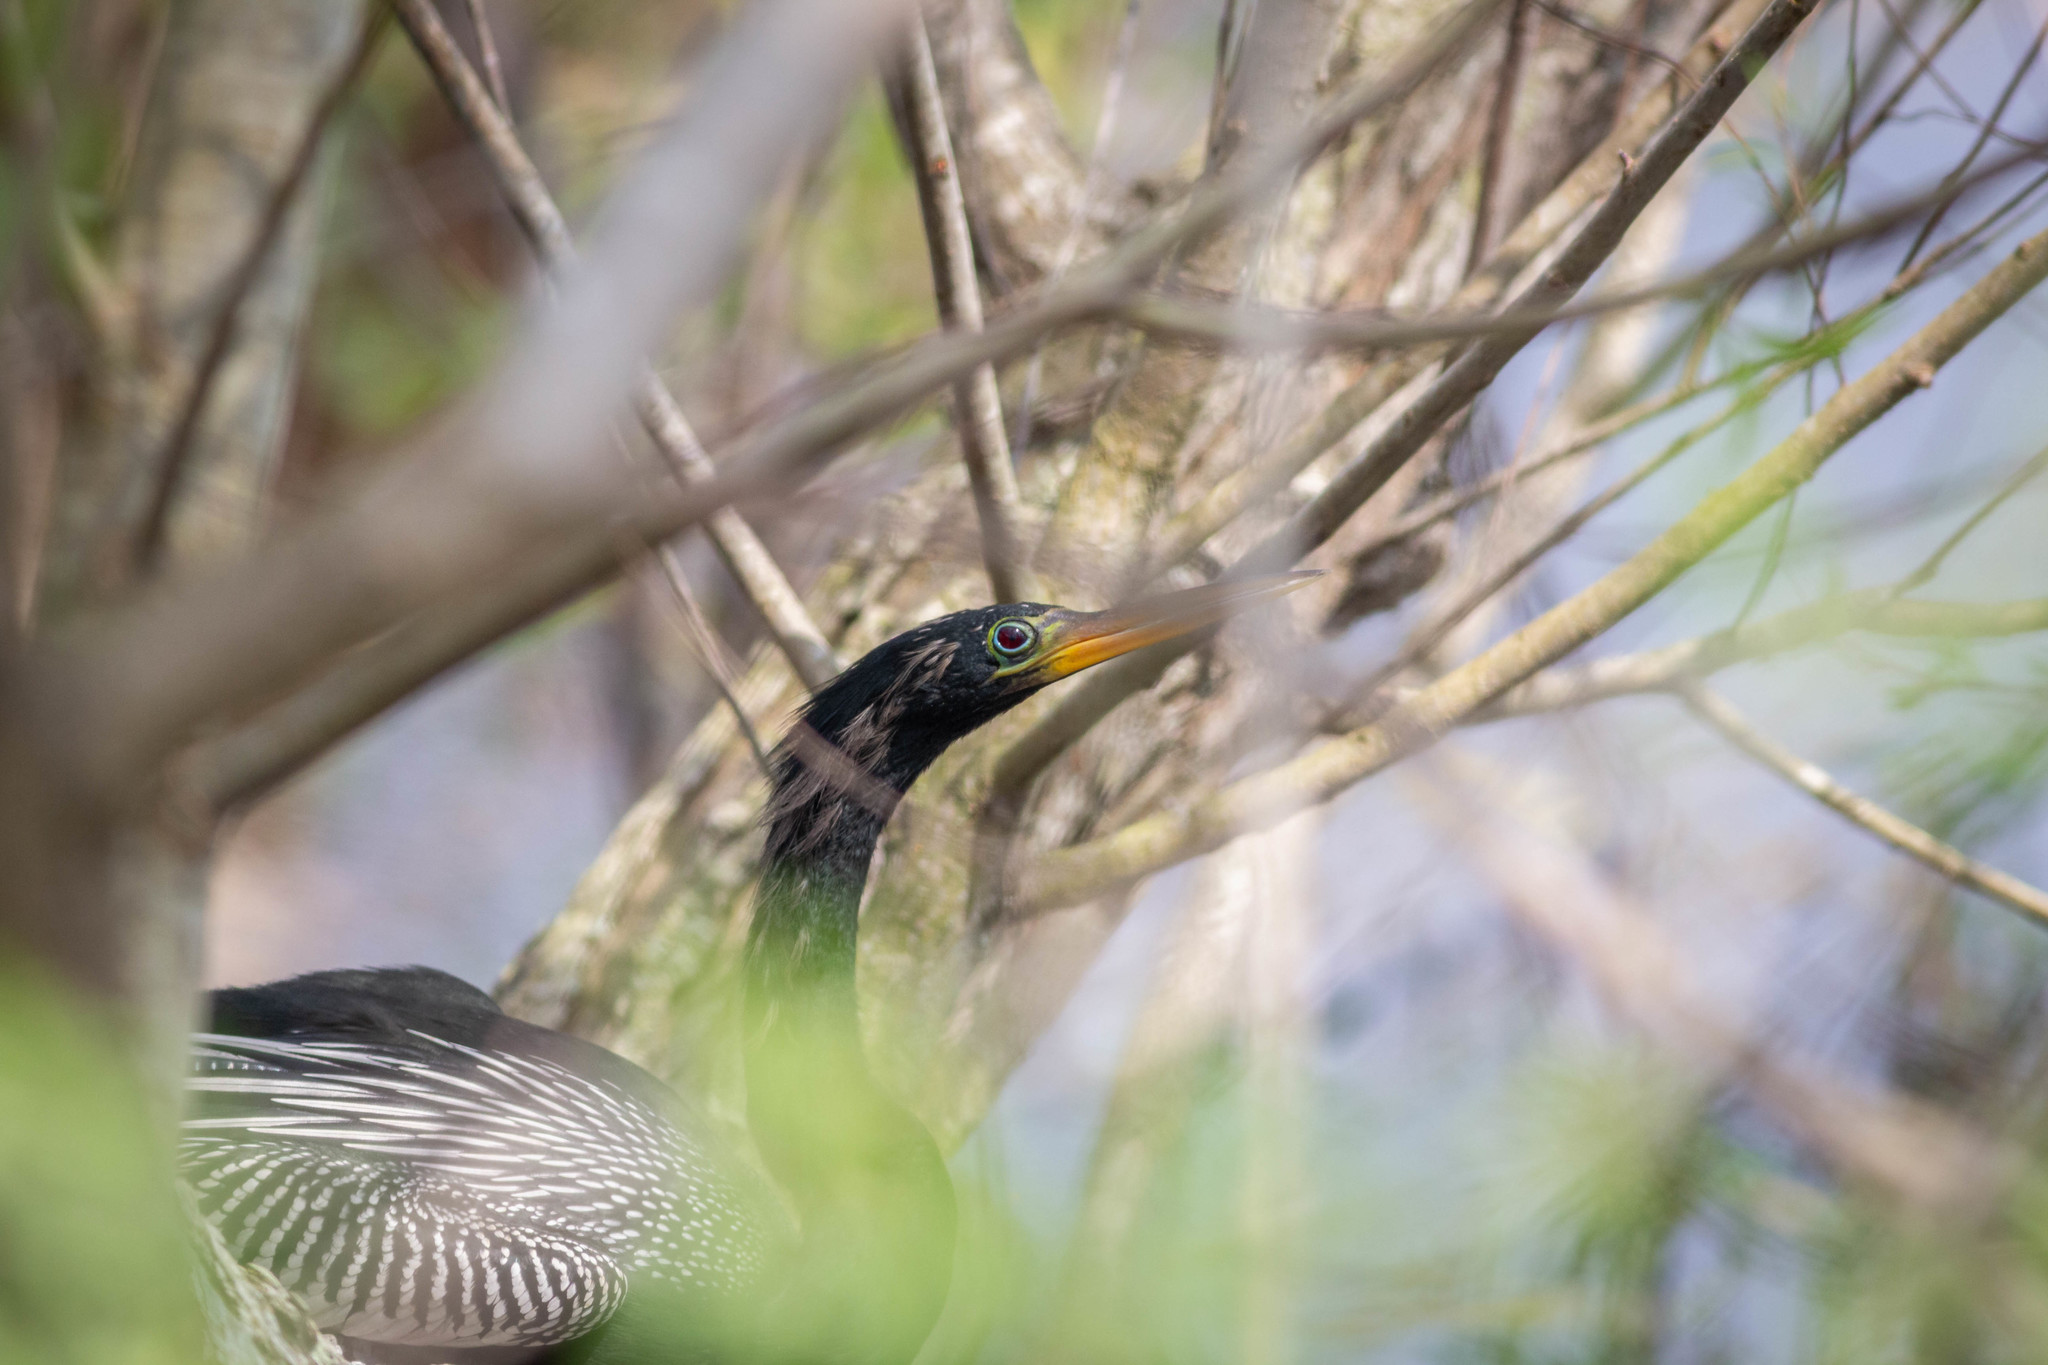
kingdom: Animalia
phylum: Chordata
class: Aves
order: Suliformes
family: Anhingidae
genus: Anhinga
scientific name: Anhinga anhinga
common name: Anhinga
